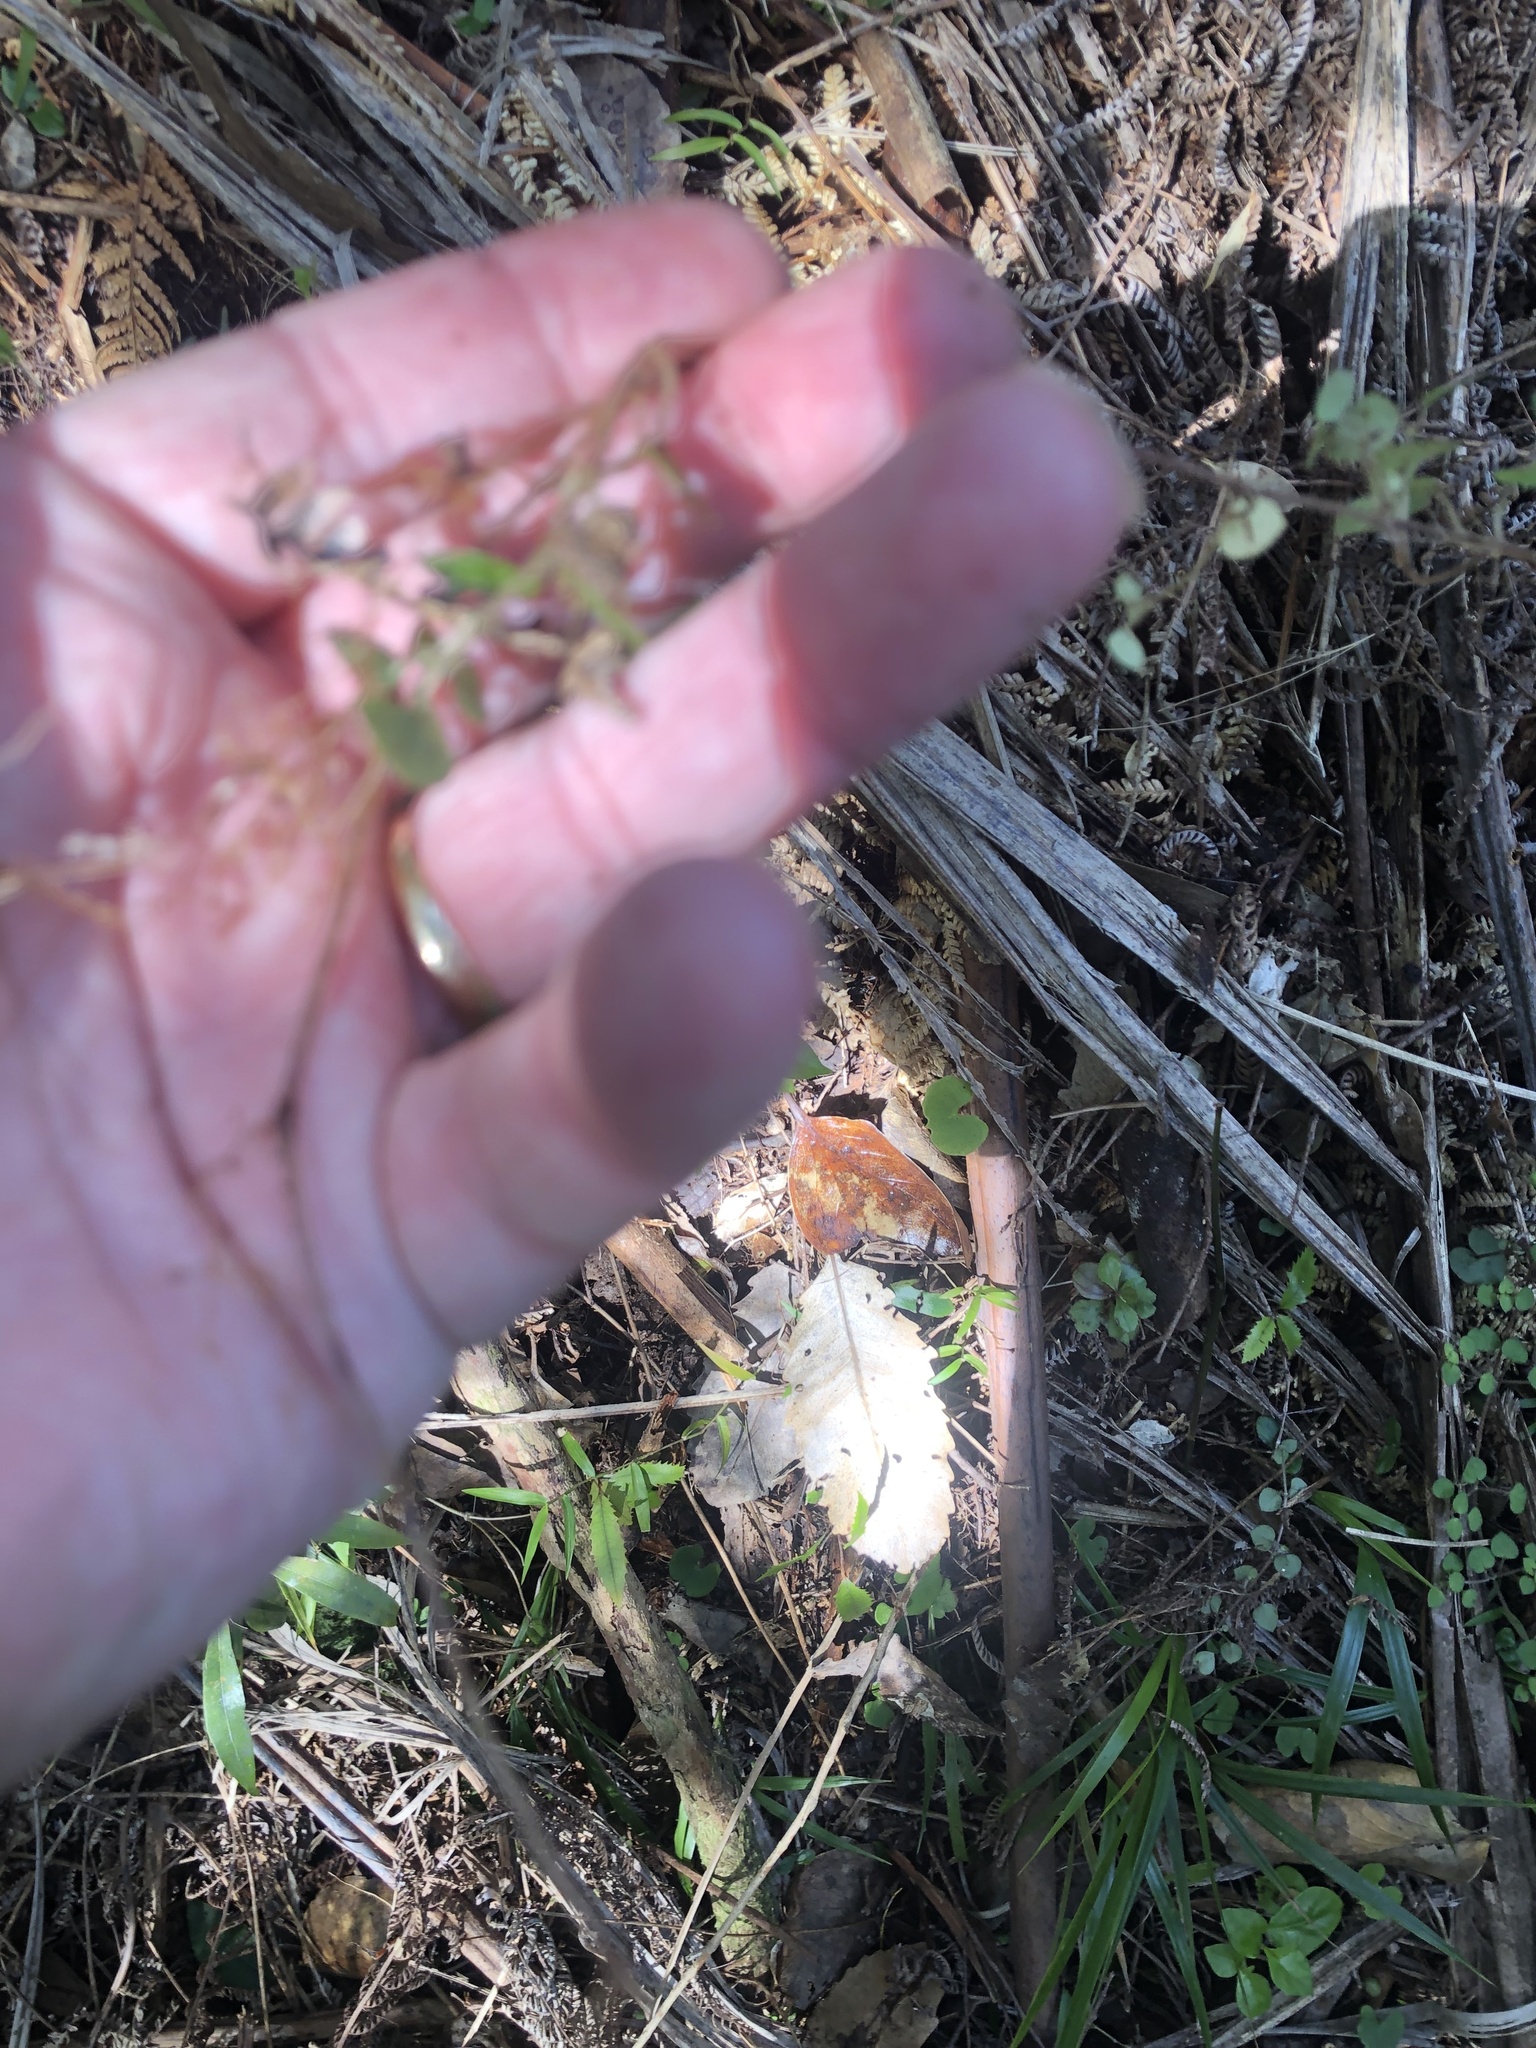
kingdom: Plantae
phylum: Tracheophyta
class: Magnoliopsida
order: Gentianales
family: Rubiaceae
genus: Nertera
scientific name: Nertera dichondrifolia
